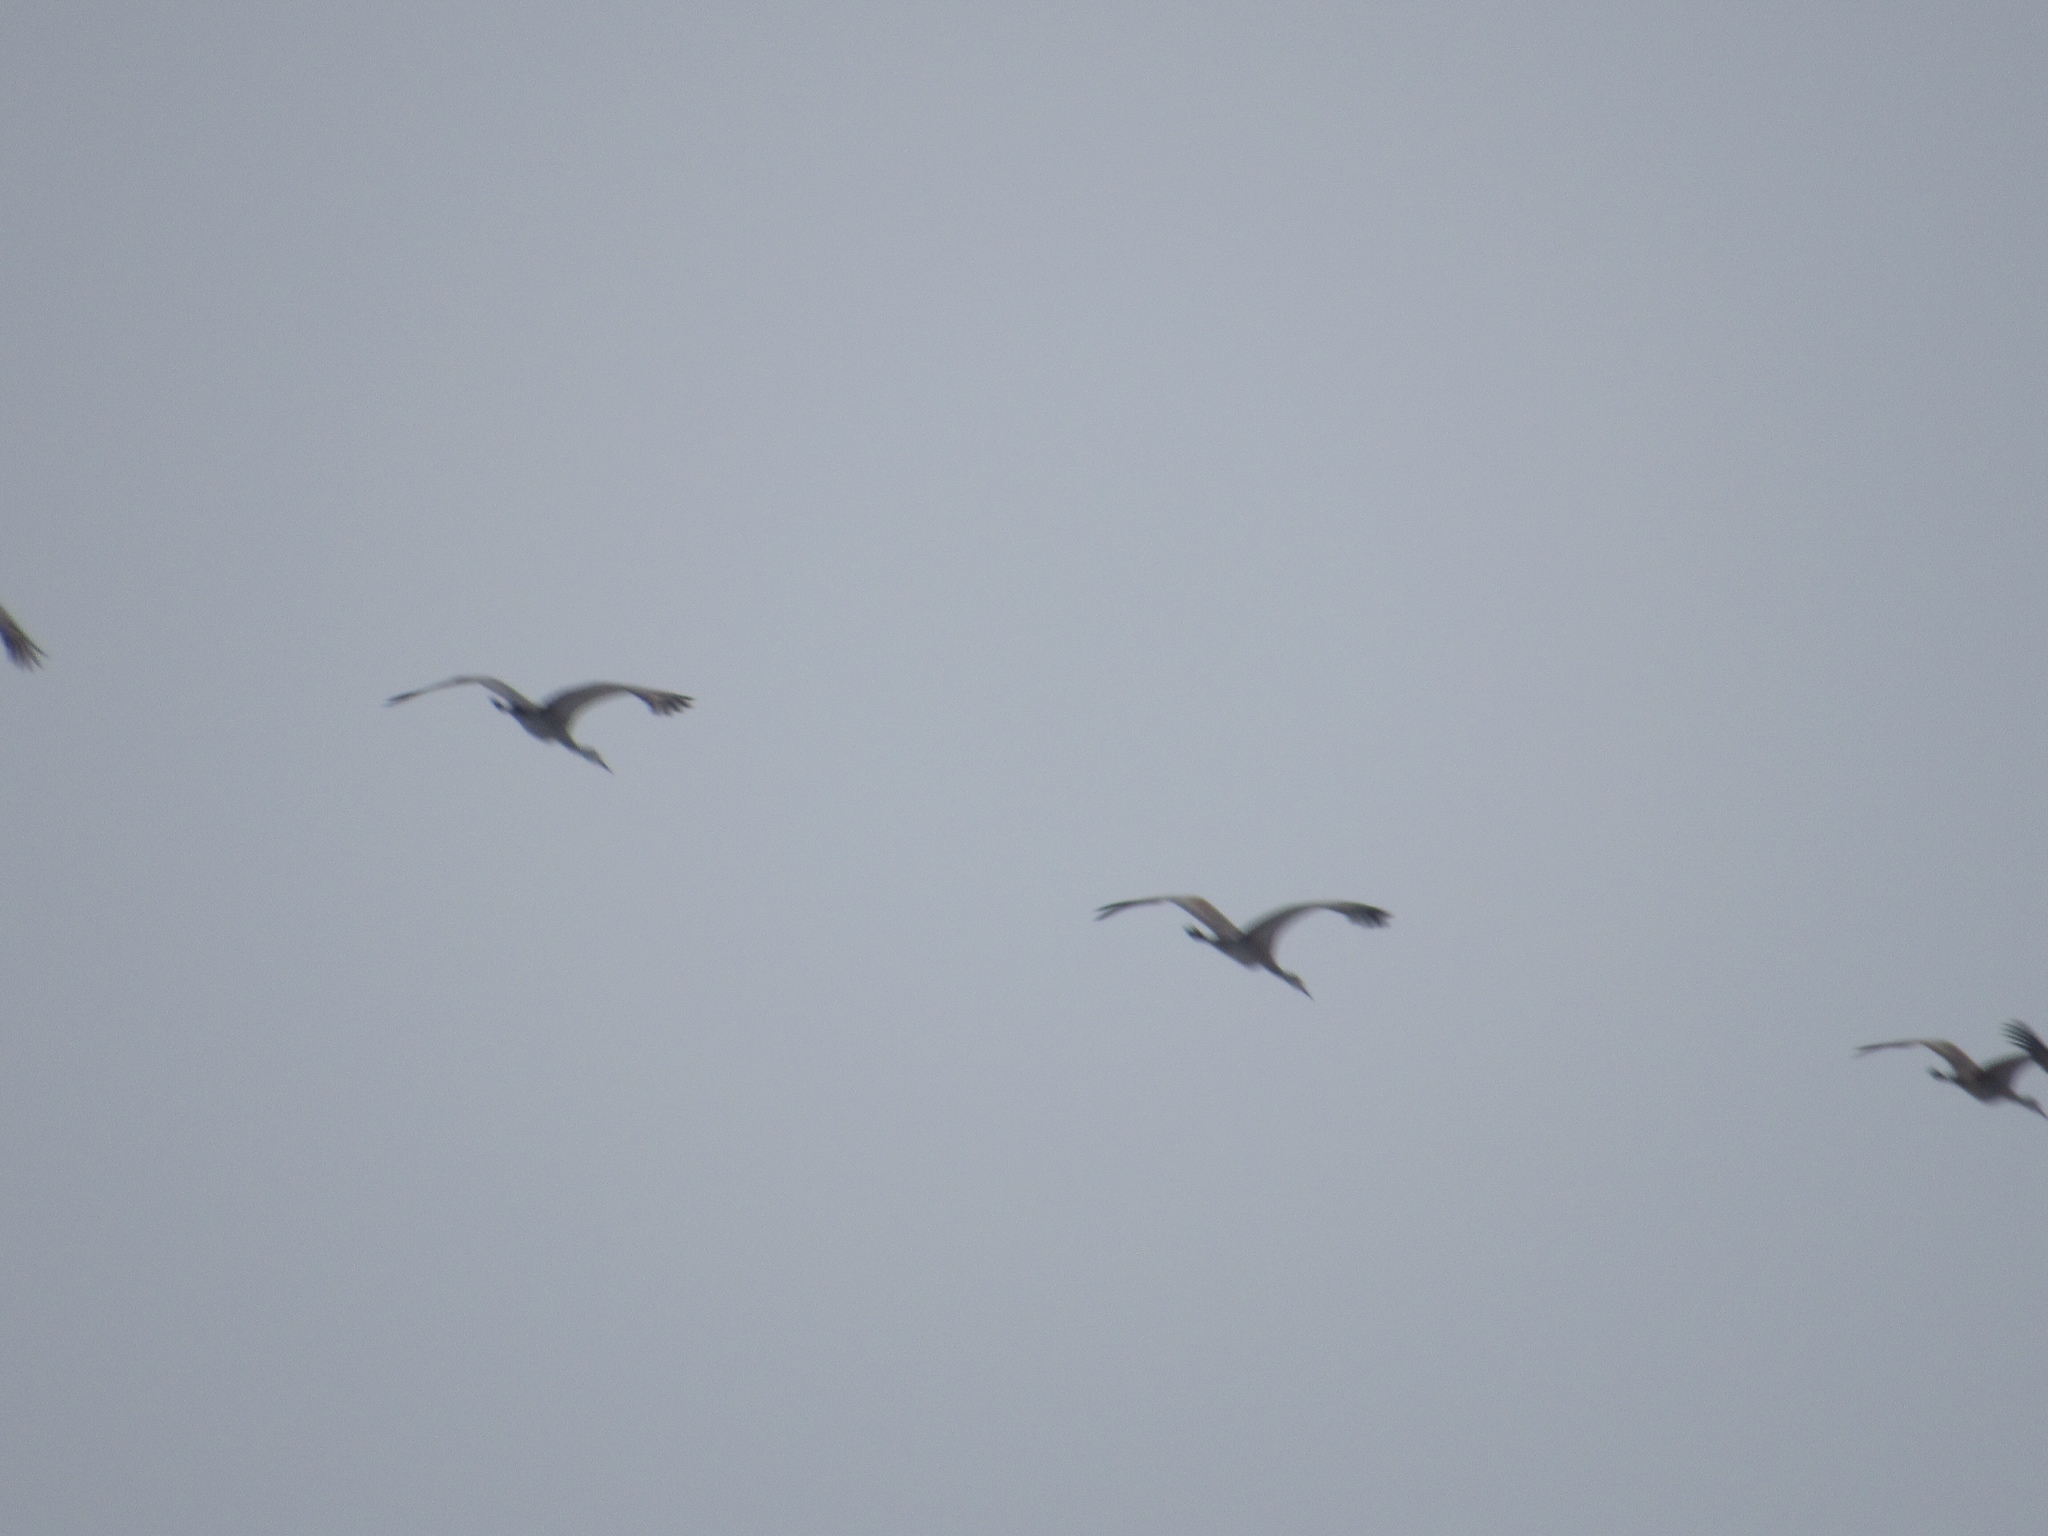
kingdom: Animalia
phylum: Chordata
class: Aves
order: Gruiformes
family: Gruidae
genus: Grus
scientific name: Grus canadensis
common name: Sandhill crane
